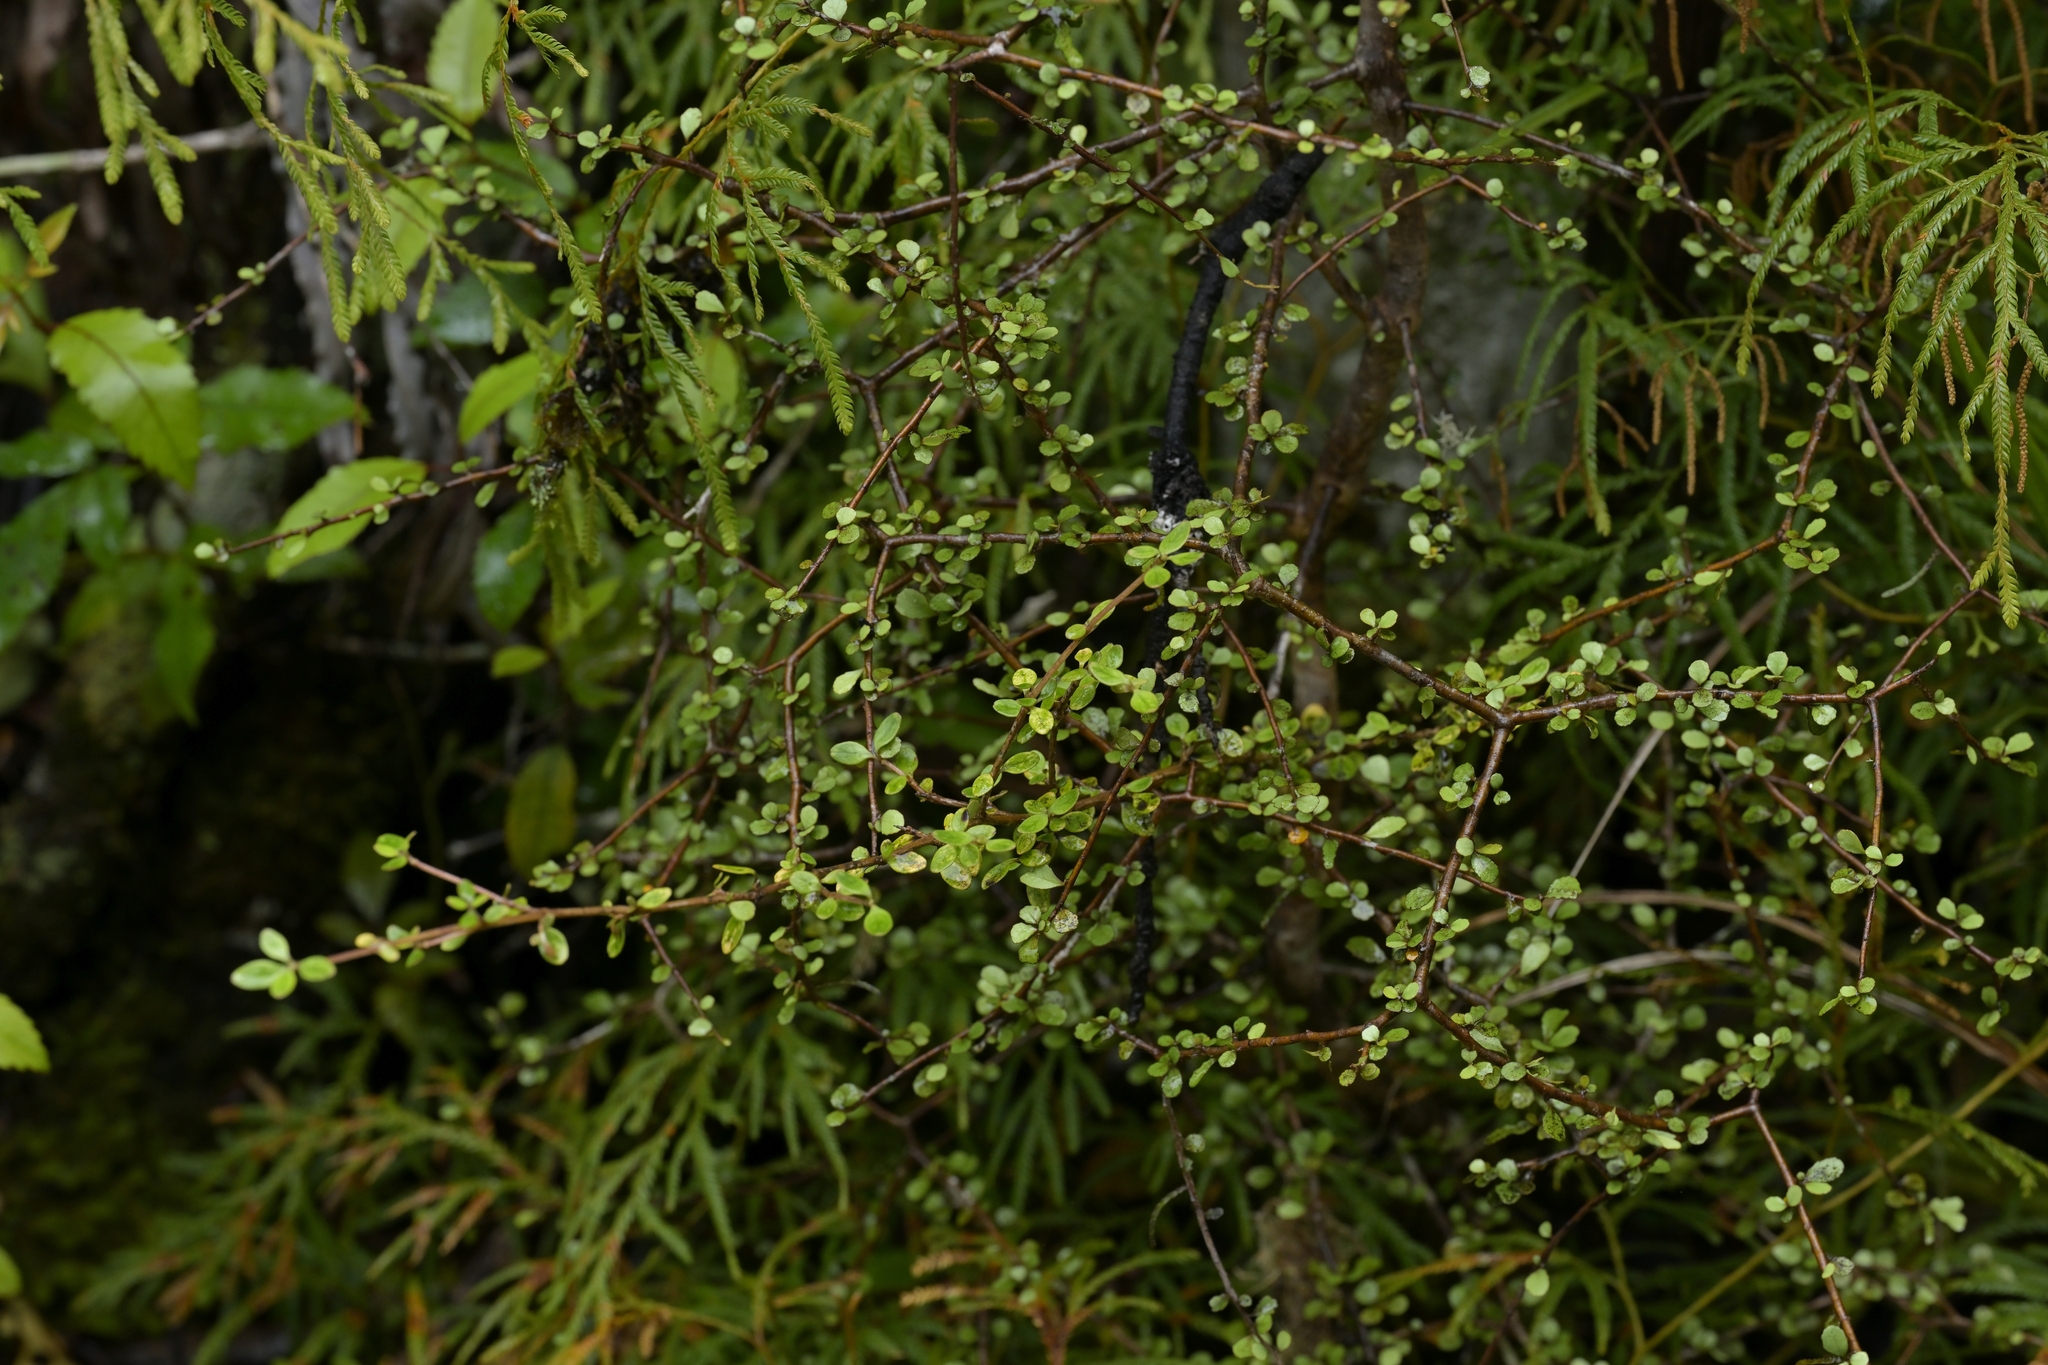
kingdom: Plantae
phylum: Tracheophyta
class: Magnoliopsida
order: Oxalidales
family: Elaeocarpaceae
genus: Elaeocarpus
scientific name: Elaeocarpus hookerianus
